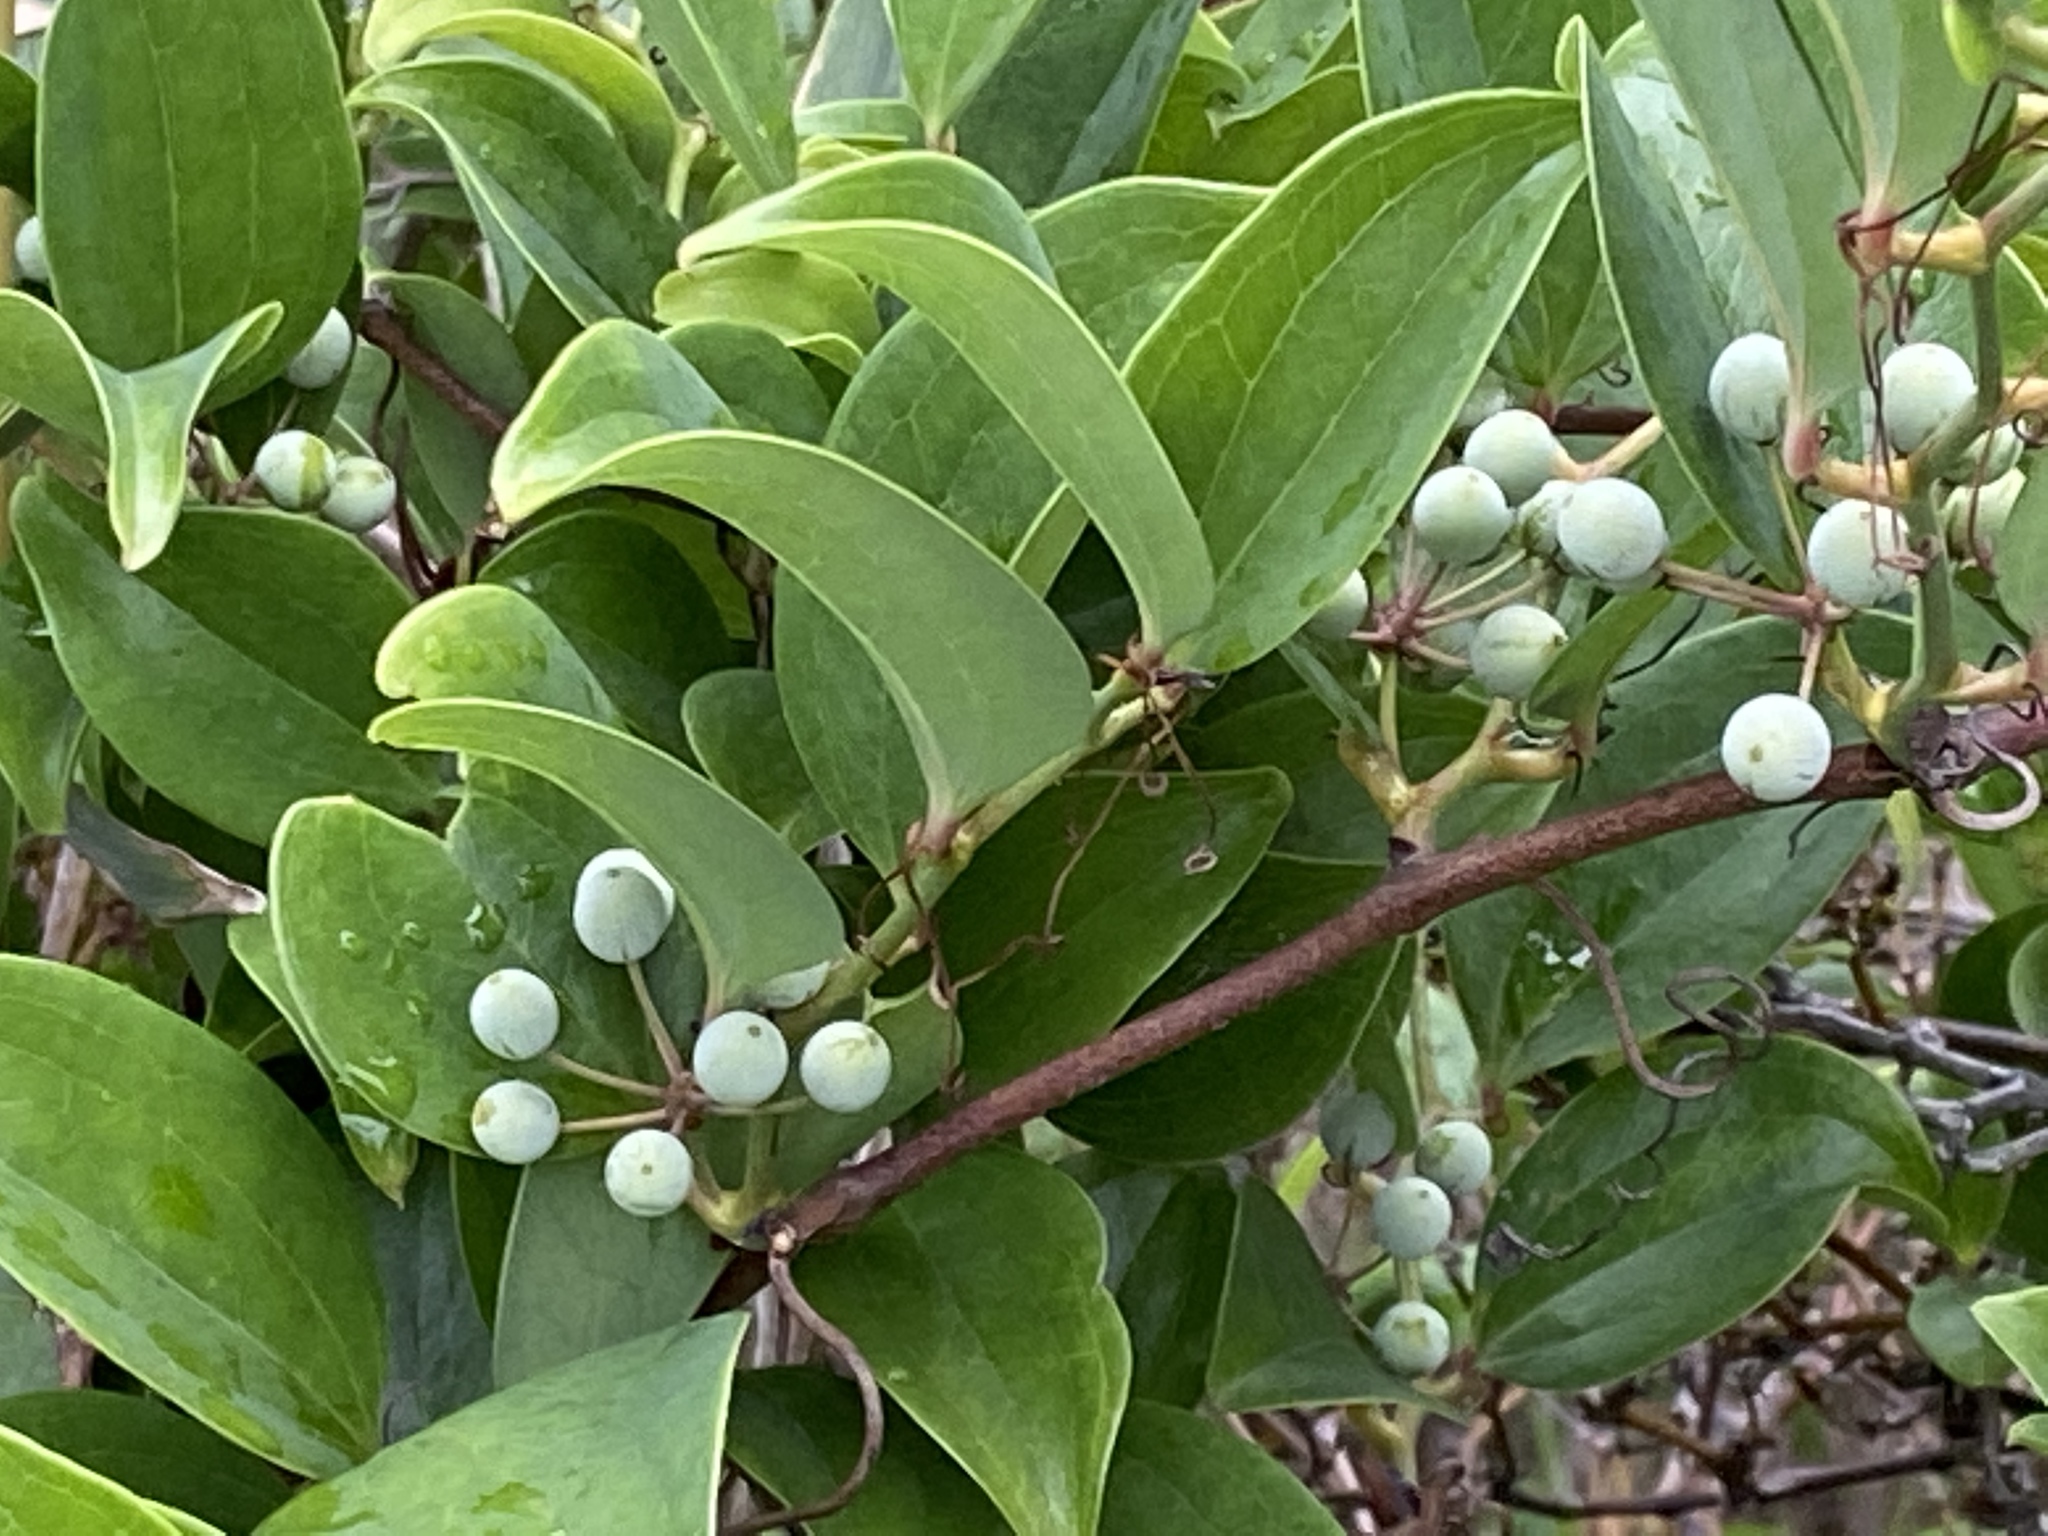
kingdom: Plantae
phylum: Tracheophyta
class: Liliopsida
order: Liliales
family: Smilacaceae
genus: Smilax
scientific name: Smilax china
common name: Chinaroot
